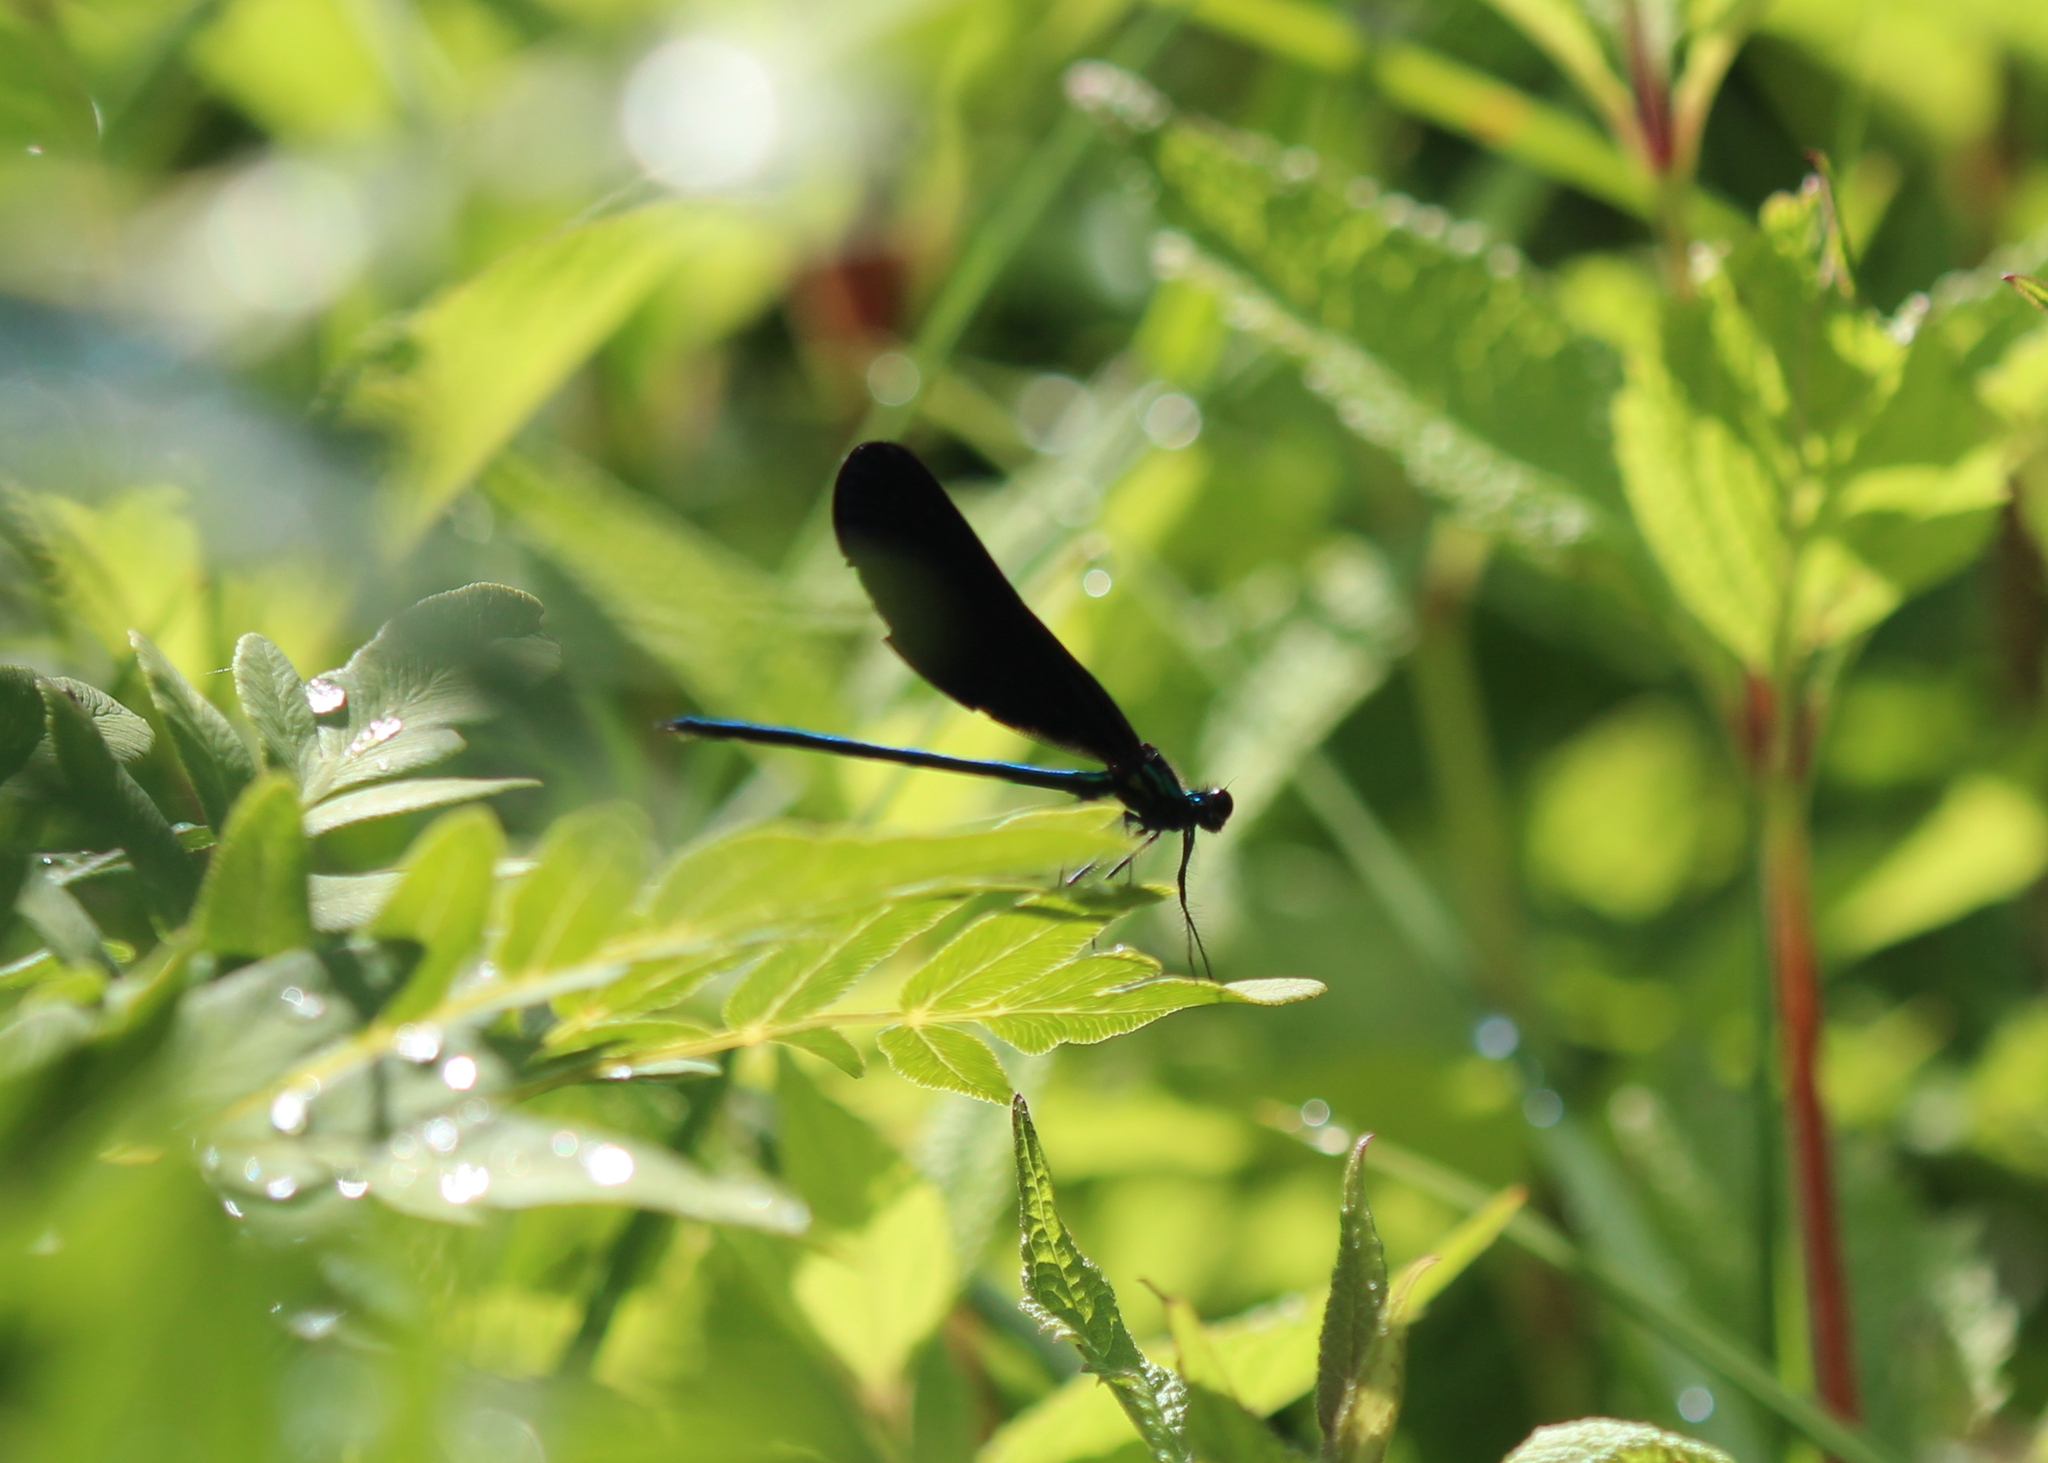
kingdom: Animalia
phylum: Arthropoda
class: Insecta
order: Odonata
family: Calopterygidae
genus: Calopteryx
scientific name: Calopteryx maculata
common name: Ebony jewelwing
